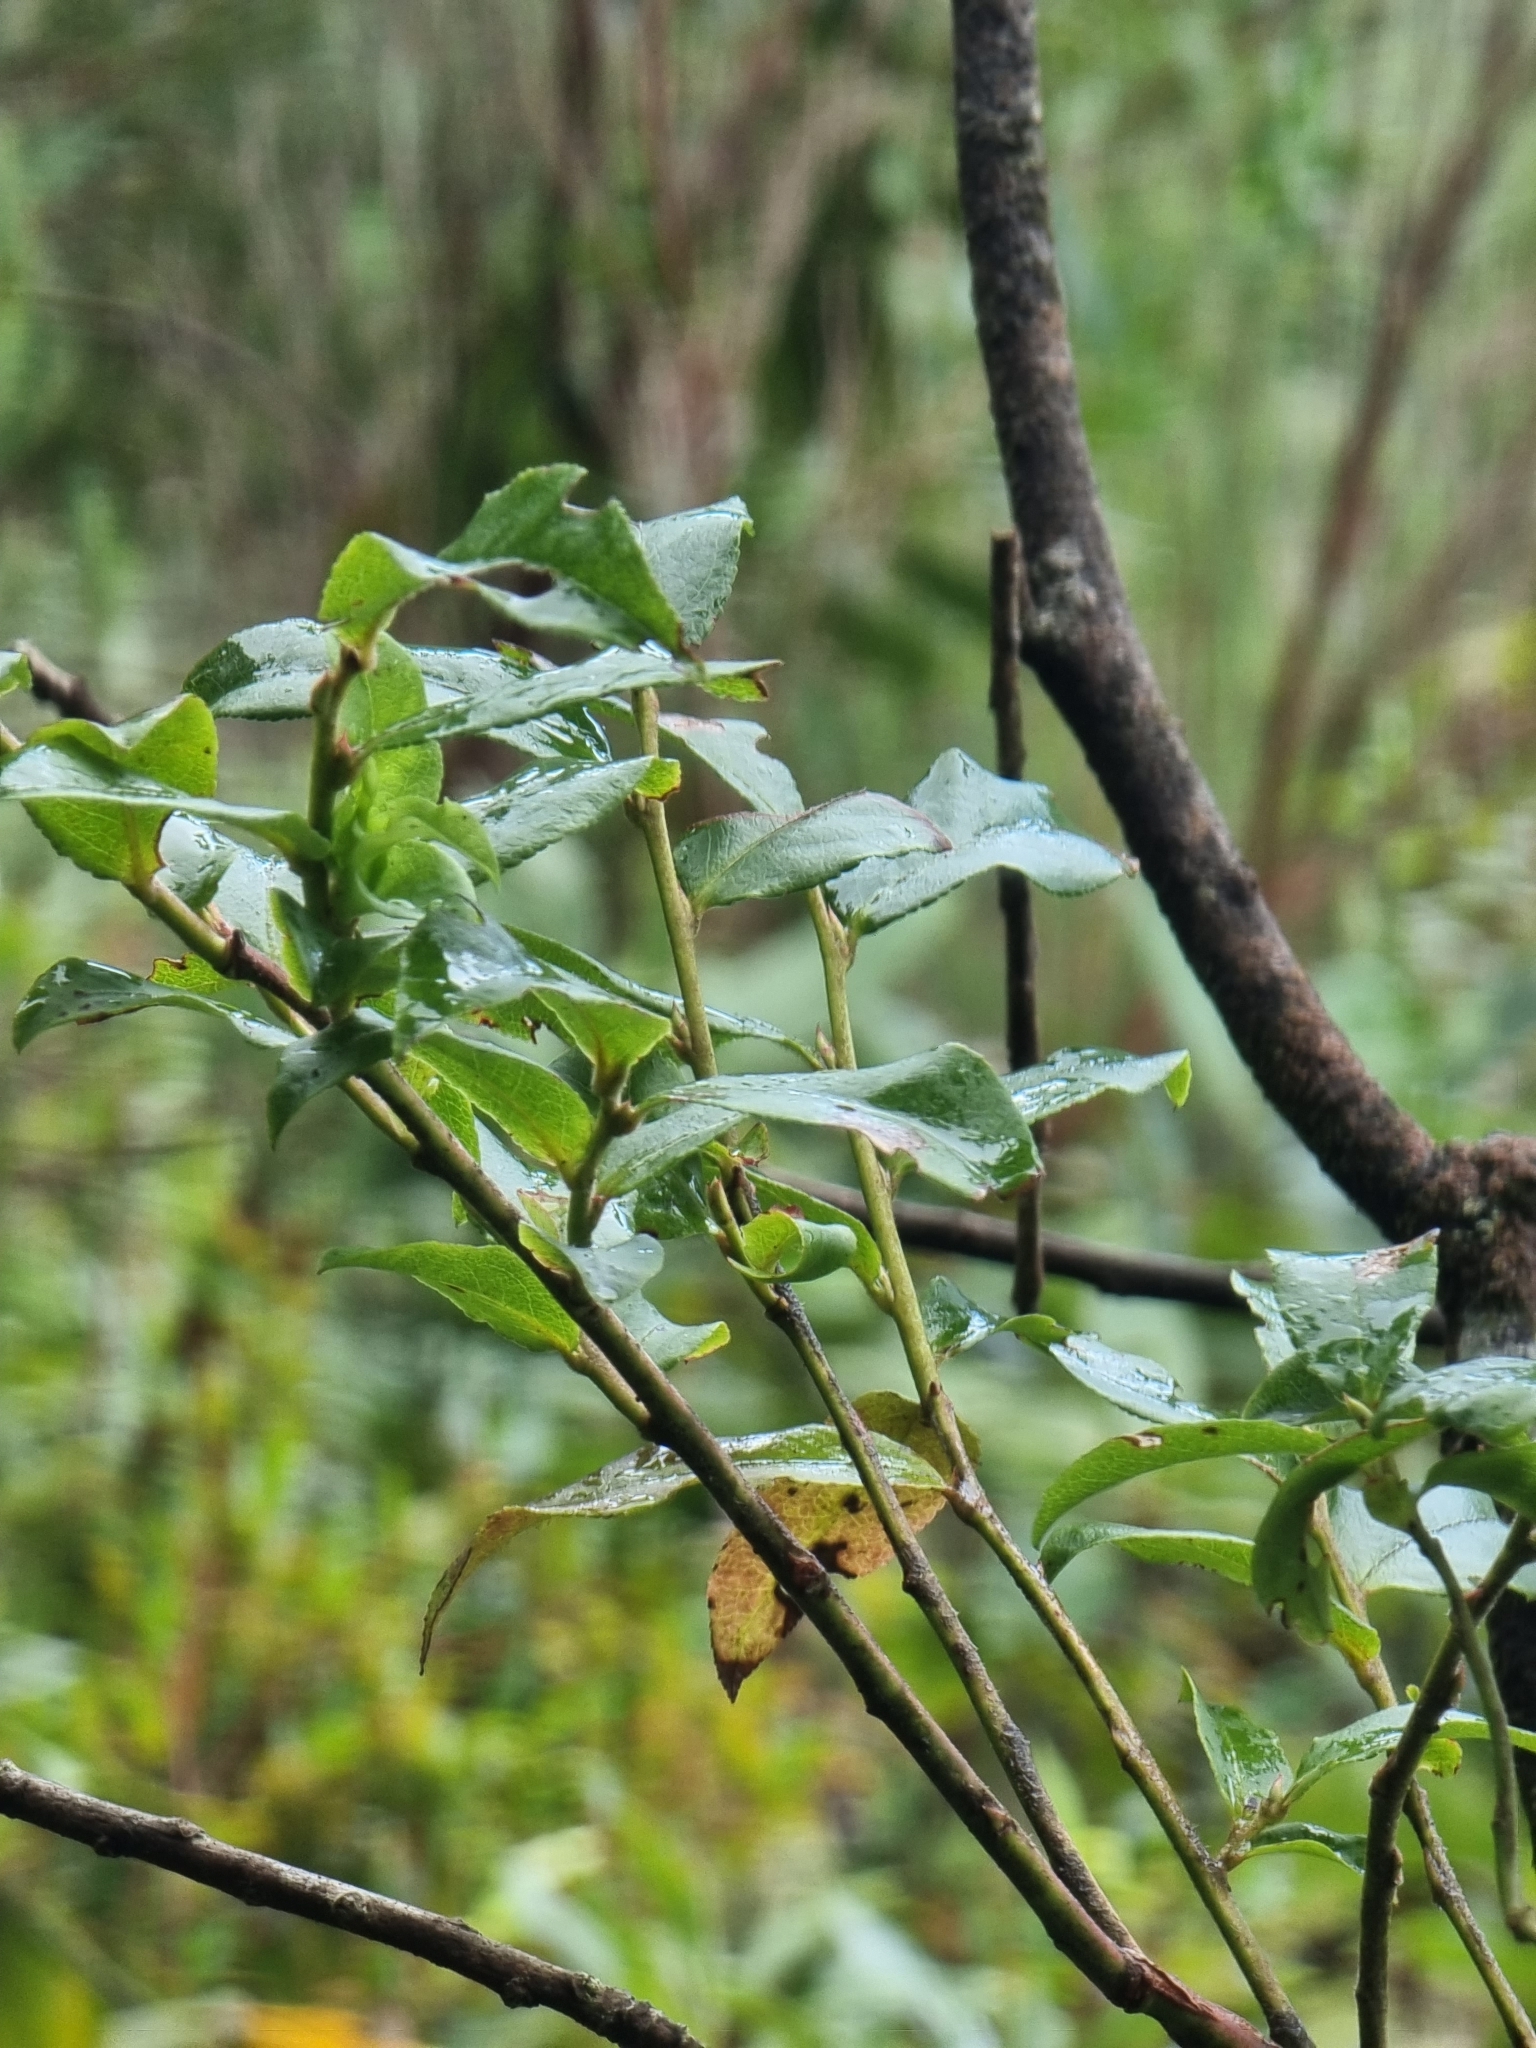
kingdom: Plantae
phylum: Tracheophyta
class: Magnoliopsida
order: Ericales
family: Ericaceae
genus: Vaccinium
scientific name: Vaccinium padifolium
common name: Madeiran blueberry
